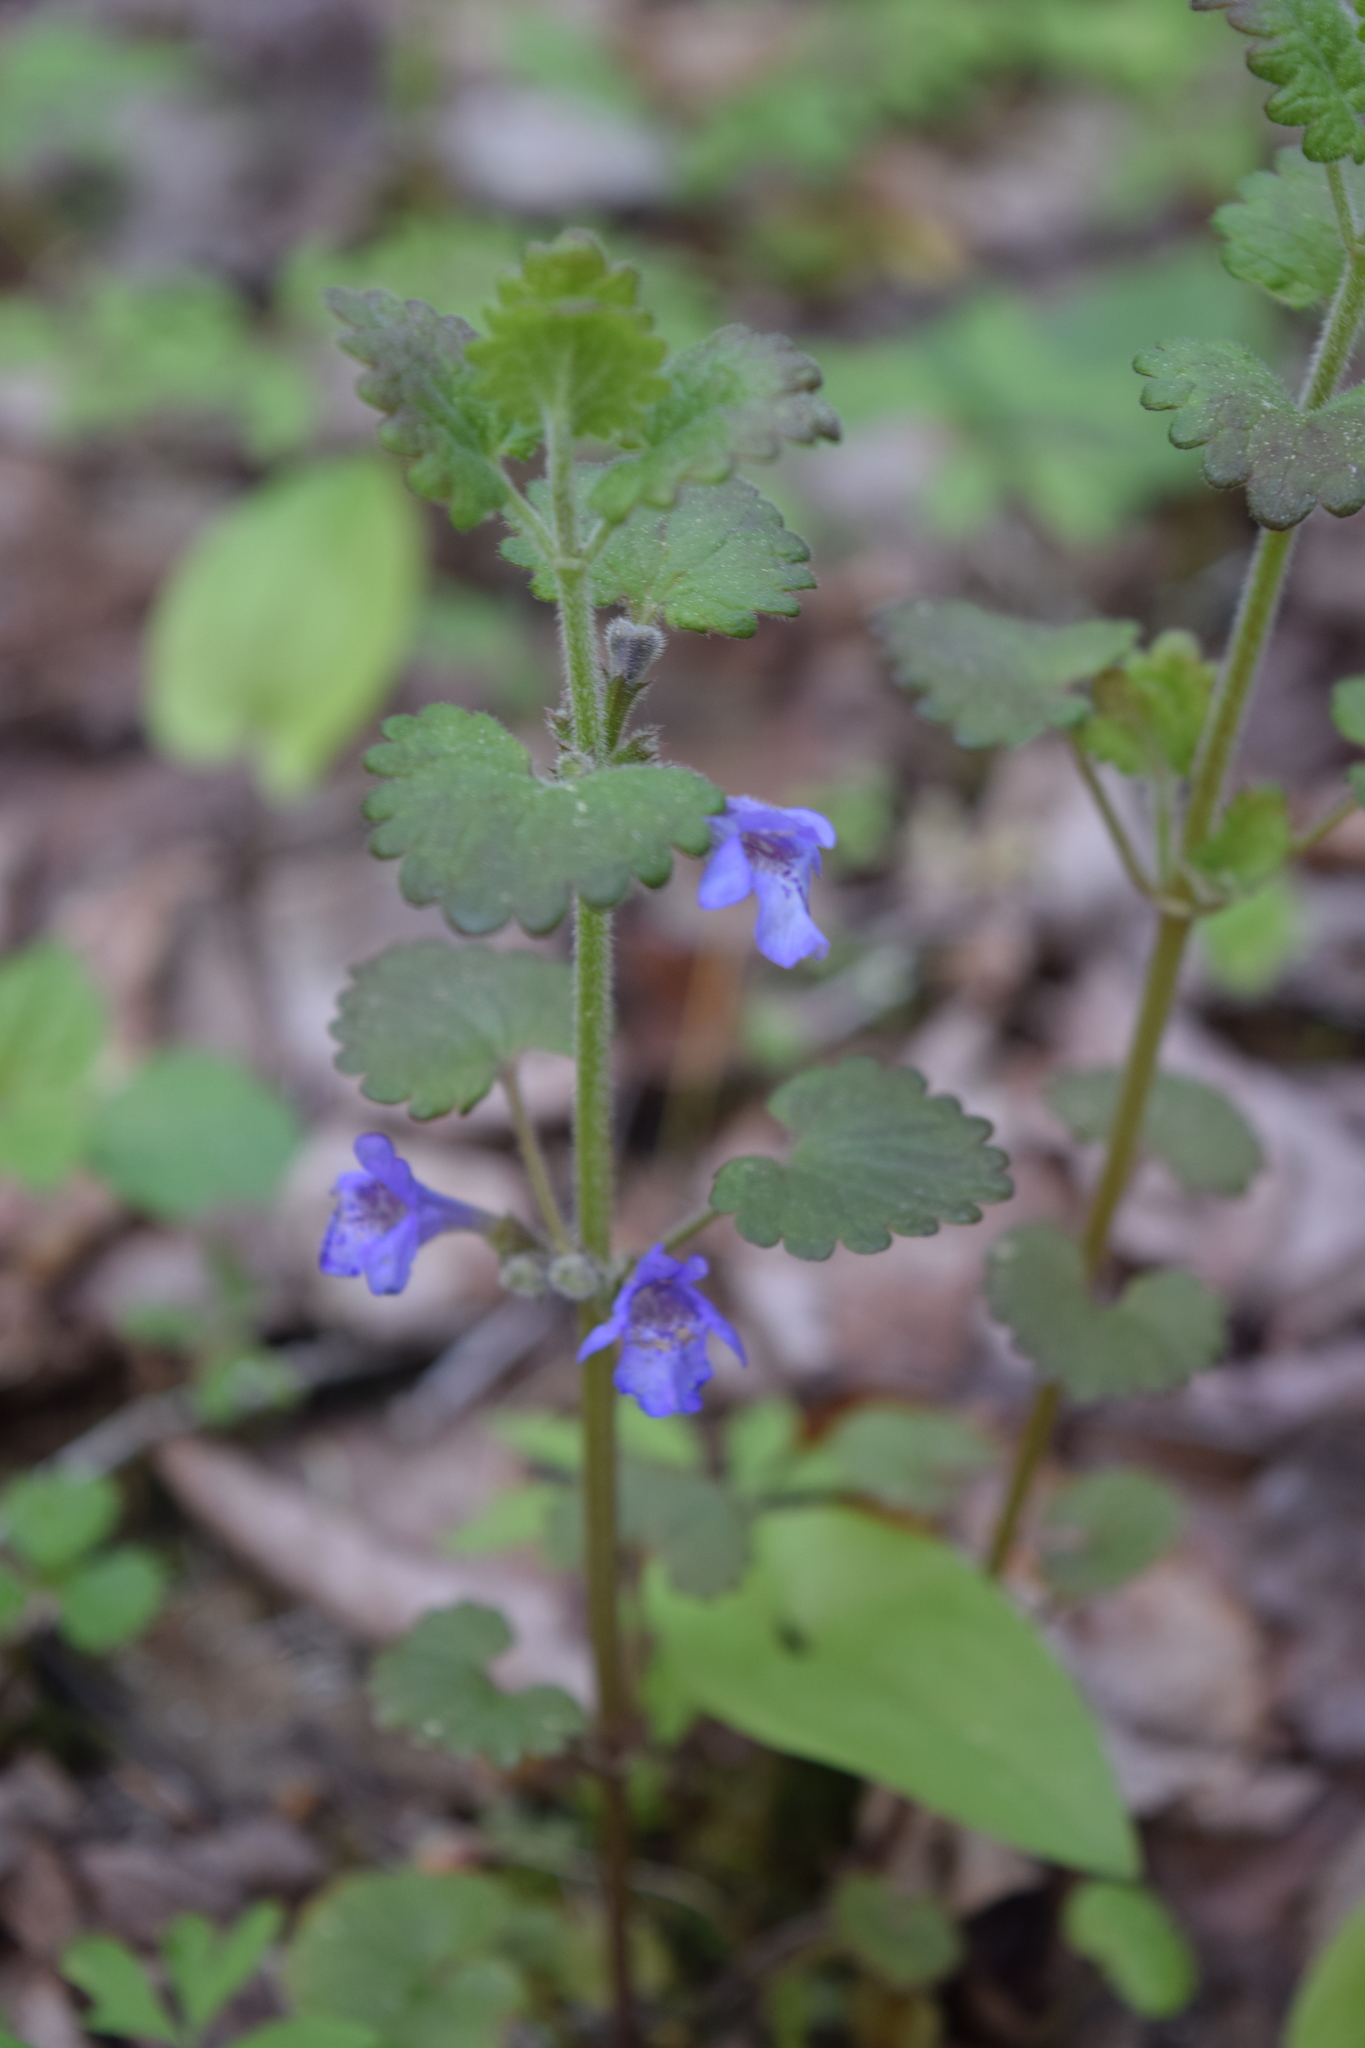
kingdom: Plantae
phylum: Tracheophyta
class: Magnoliopsida
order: Lamiales
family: Lamiaceae
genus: Glechoma
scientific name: Glechoma hederacea
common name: Ground ivy
